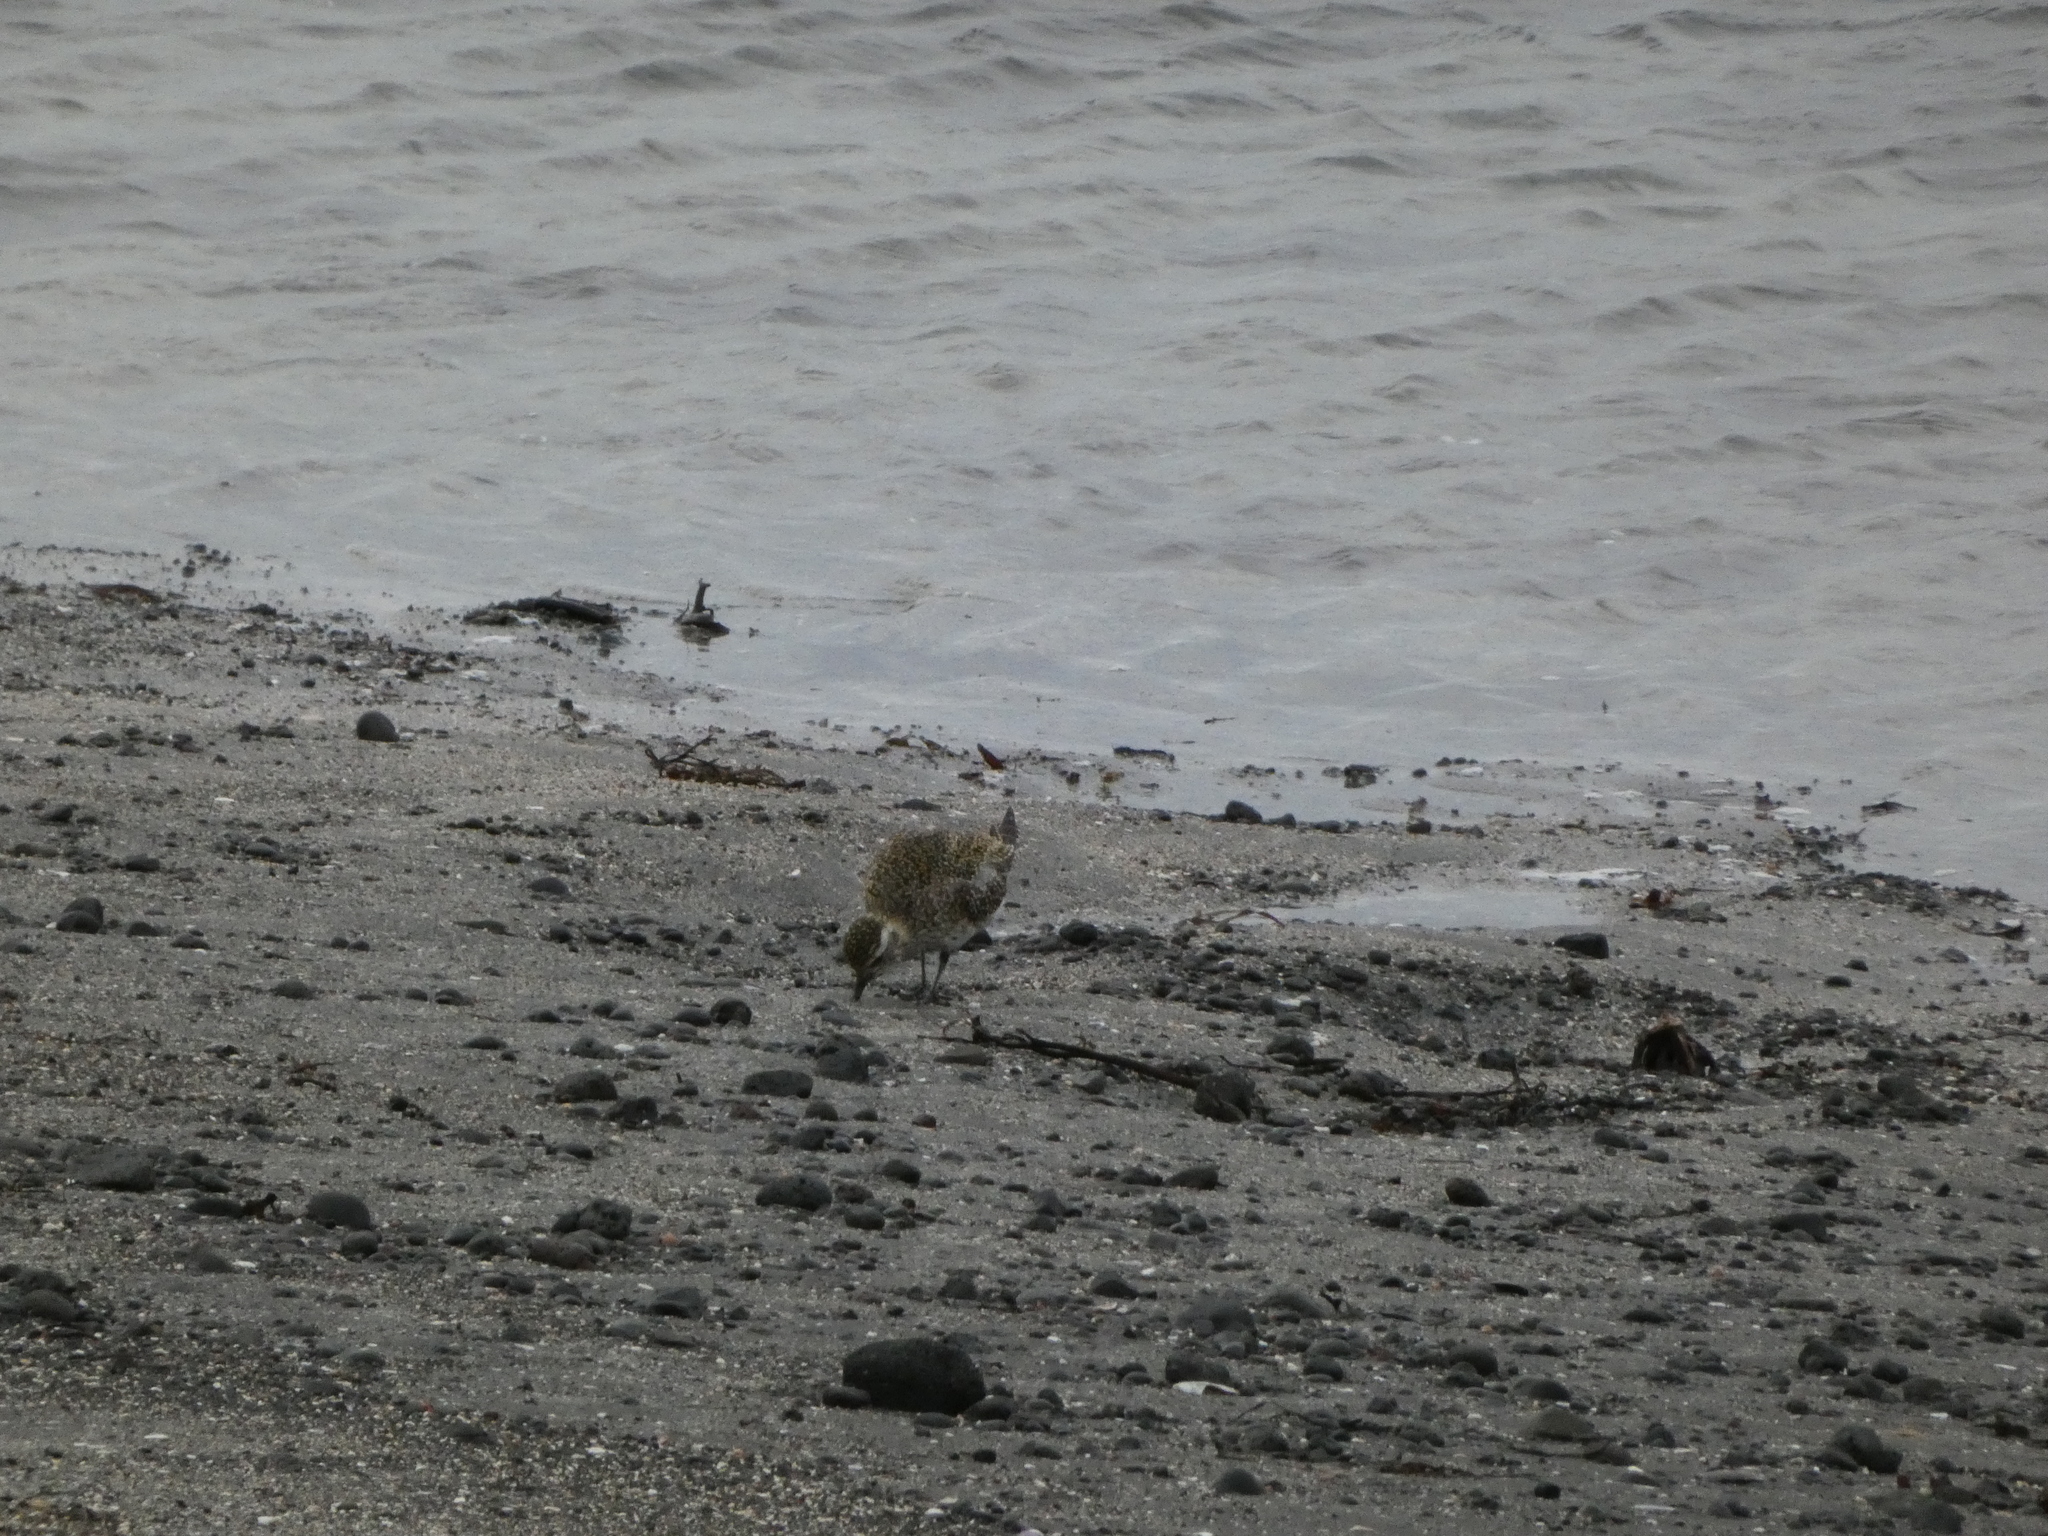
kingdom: Animalia
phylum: Chordata
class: Aves
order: Charadriiformes
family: Charadriidae
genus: Pluvialis
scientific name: Pluvialis apricaria
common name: European golden plover
